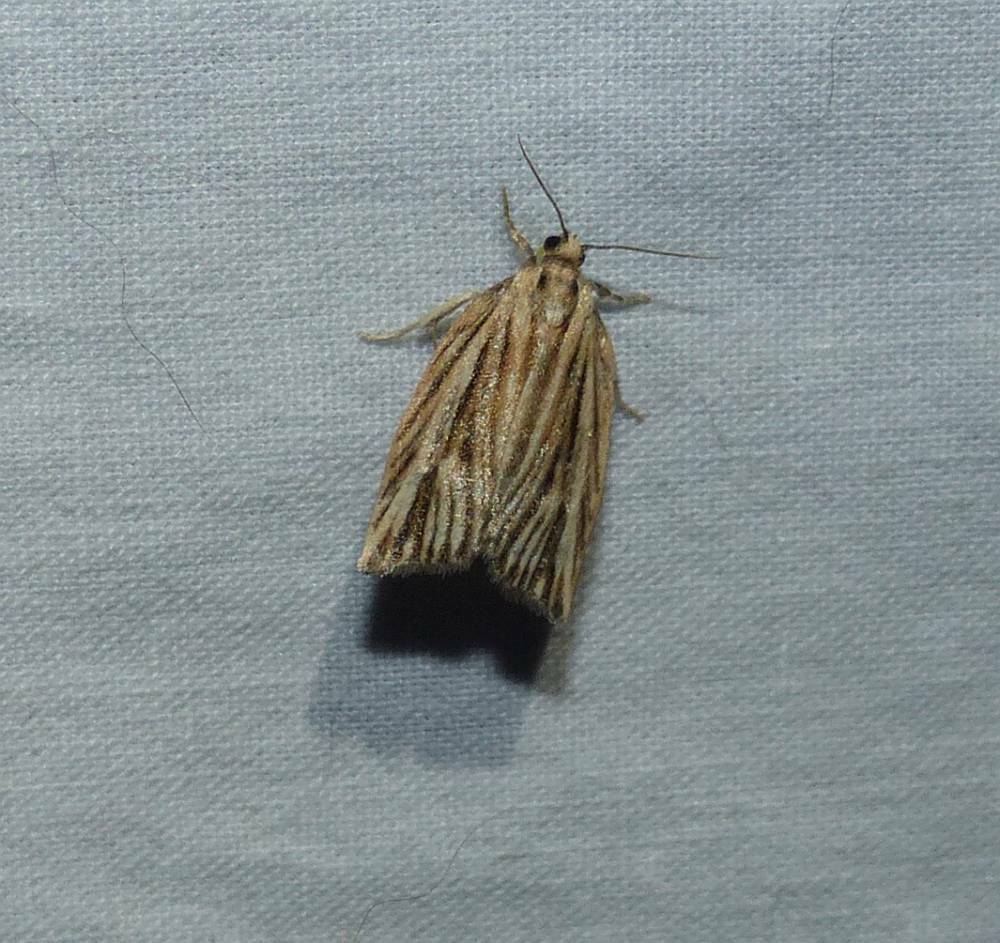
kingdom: Animalia
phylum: Arthropoda
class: Insecta
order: Lepidoptera
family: Tortricidae
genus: Archips
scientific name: Archips strianus
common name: Striated tortrix moth
